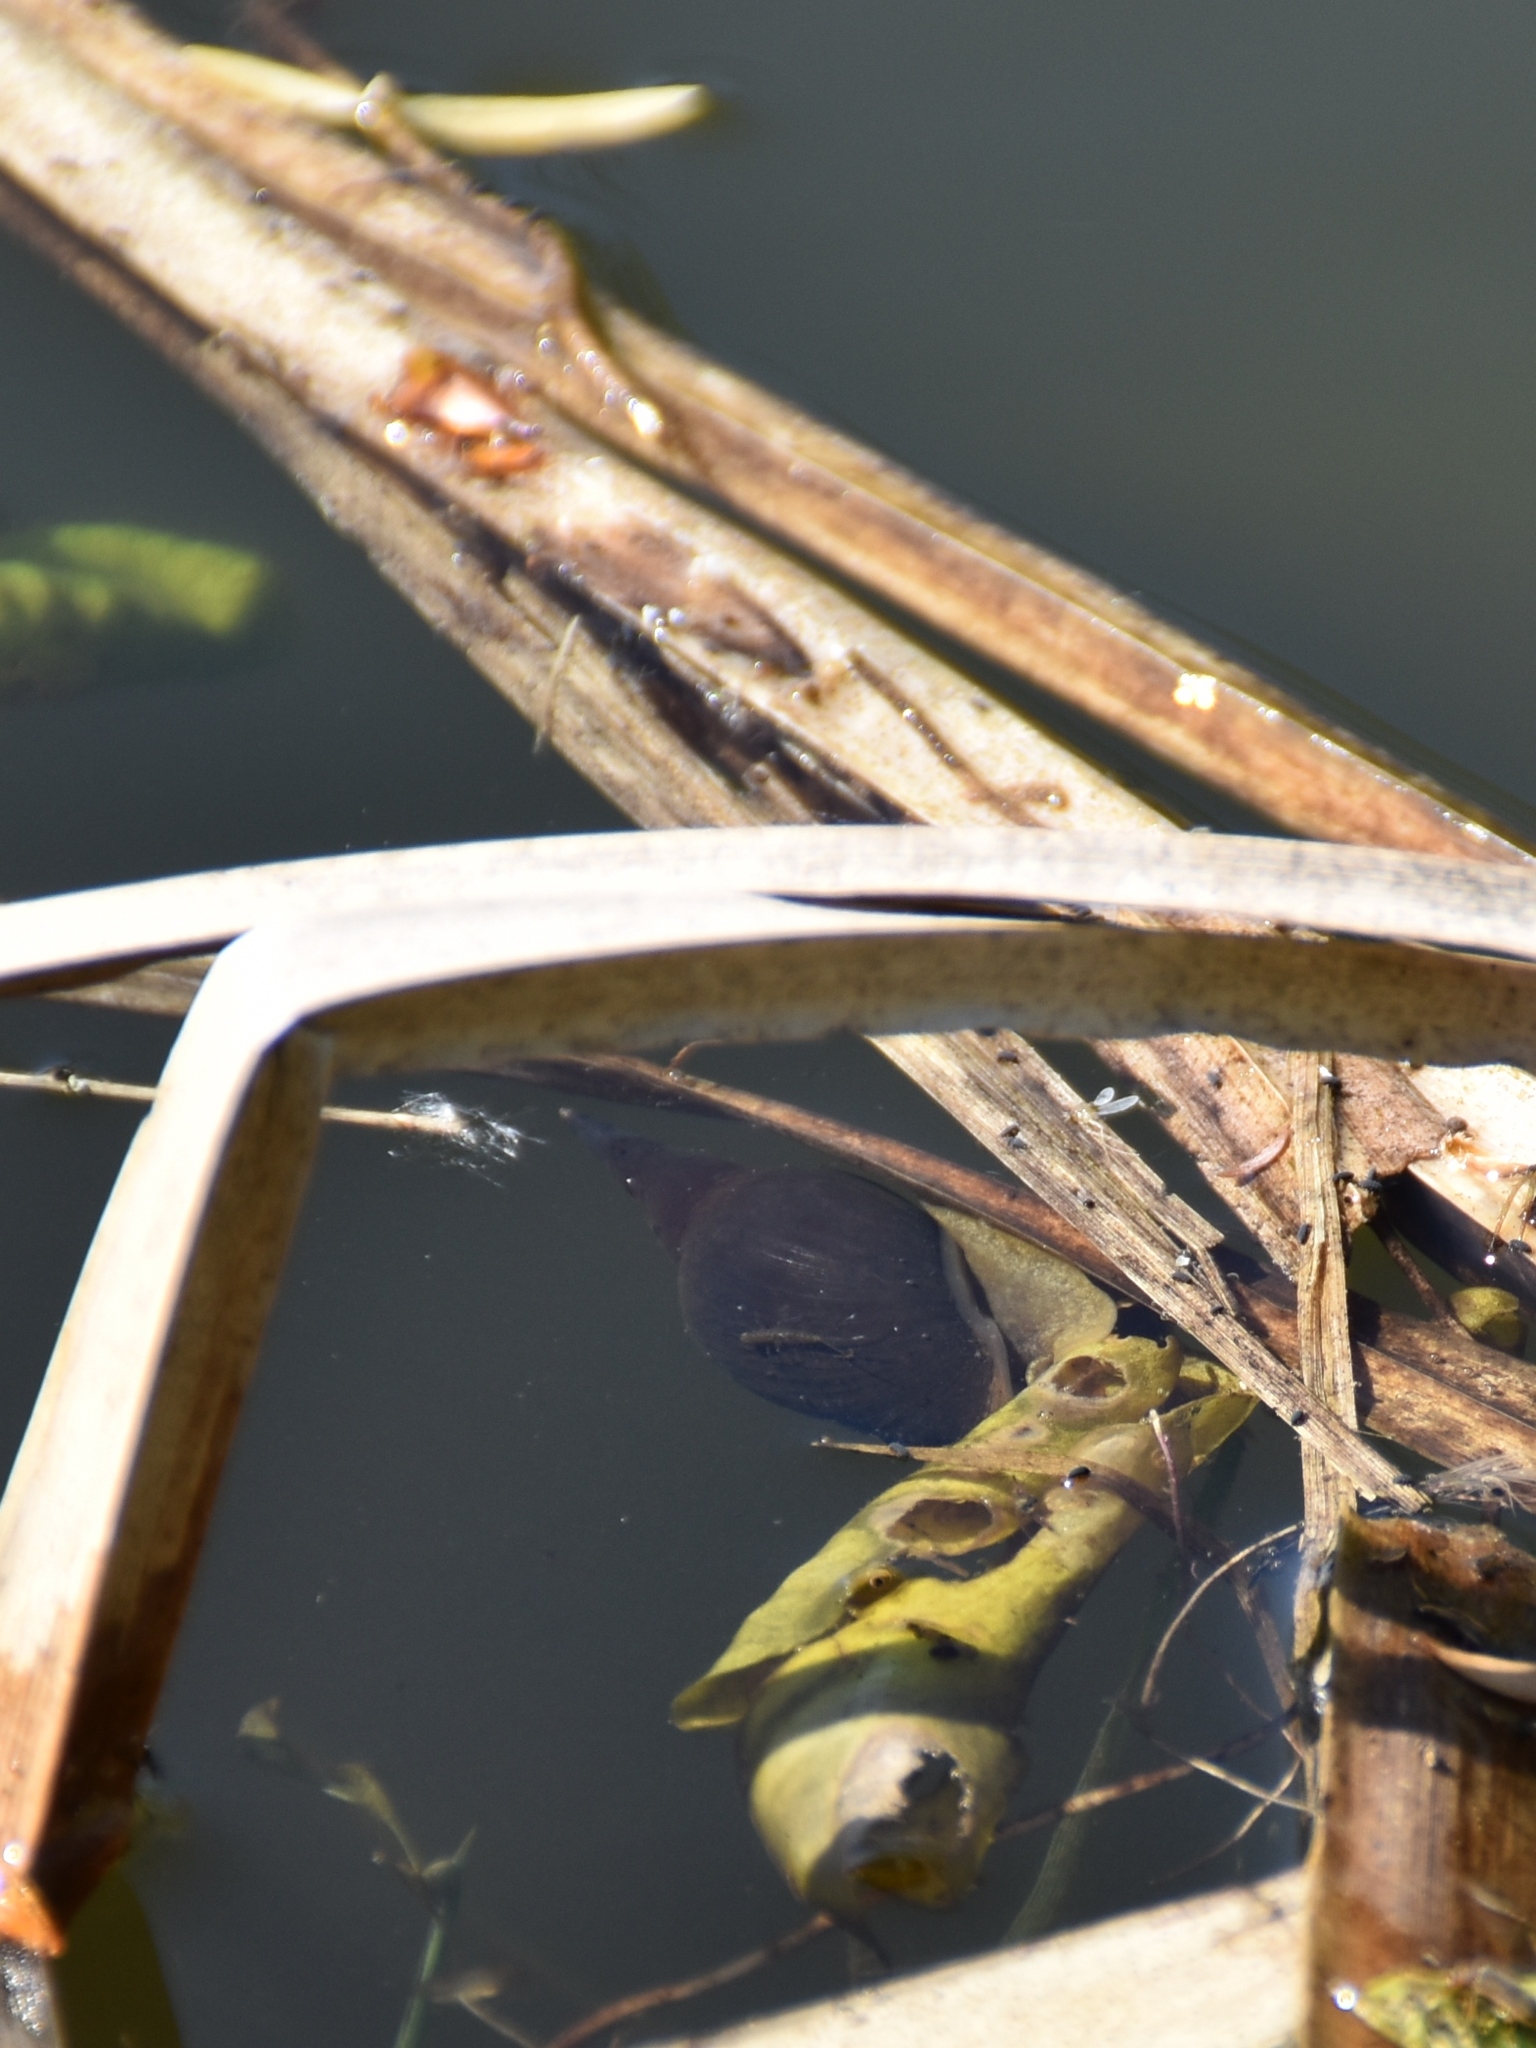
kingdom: Animalia
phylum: Mollusca
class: Gastropoda
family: Lymnaeidae
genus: Lymnaea
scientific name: Lymnaea stagnalis
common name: Great pond snail
